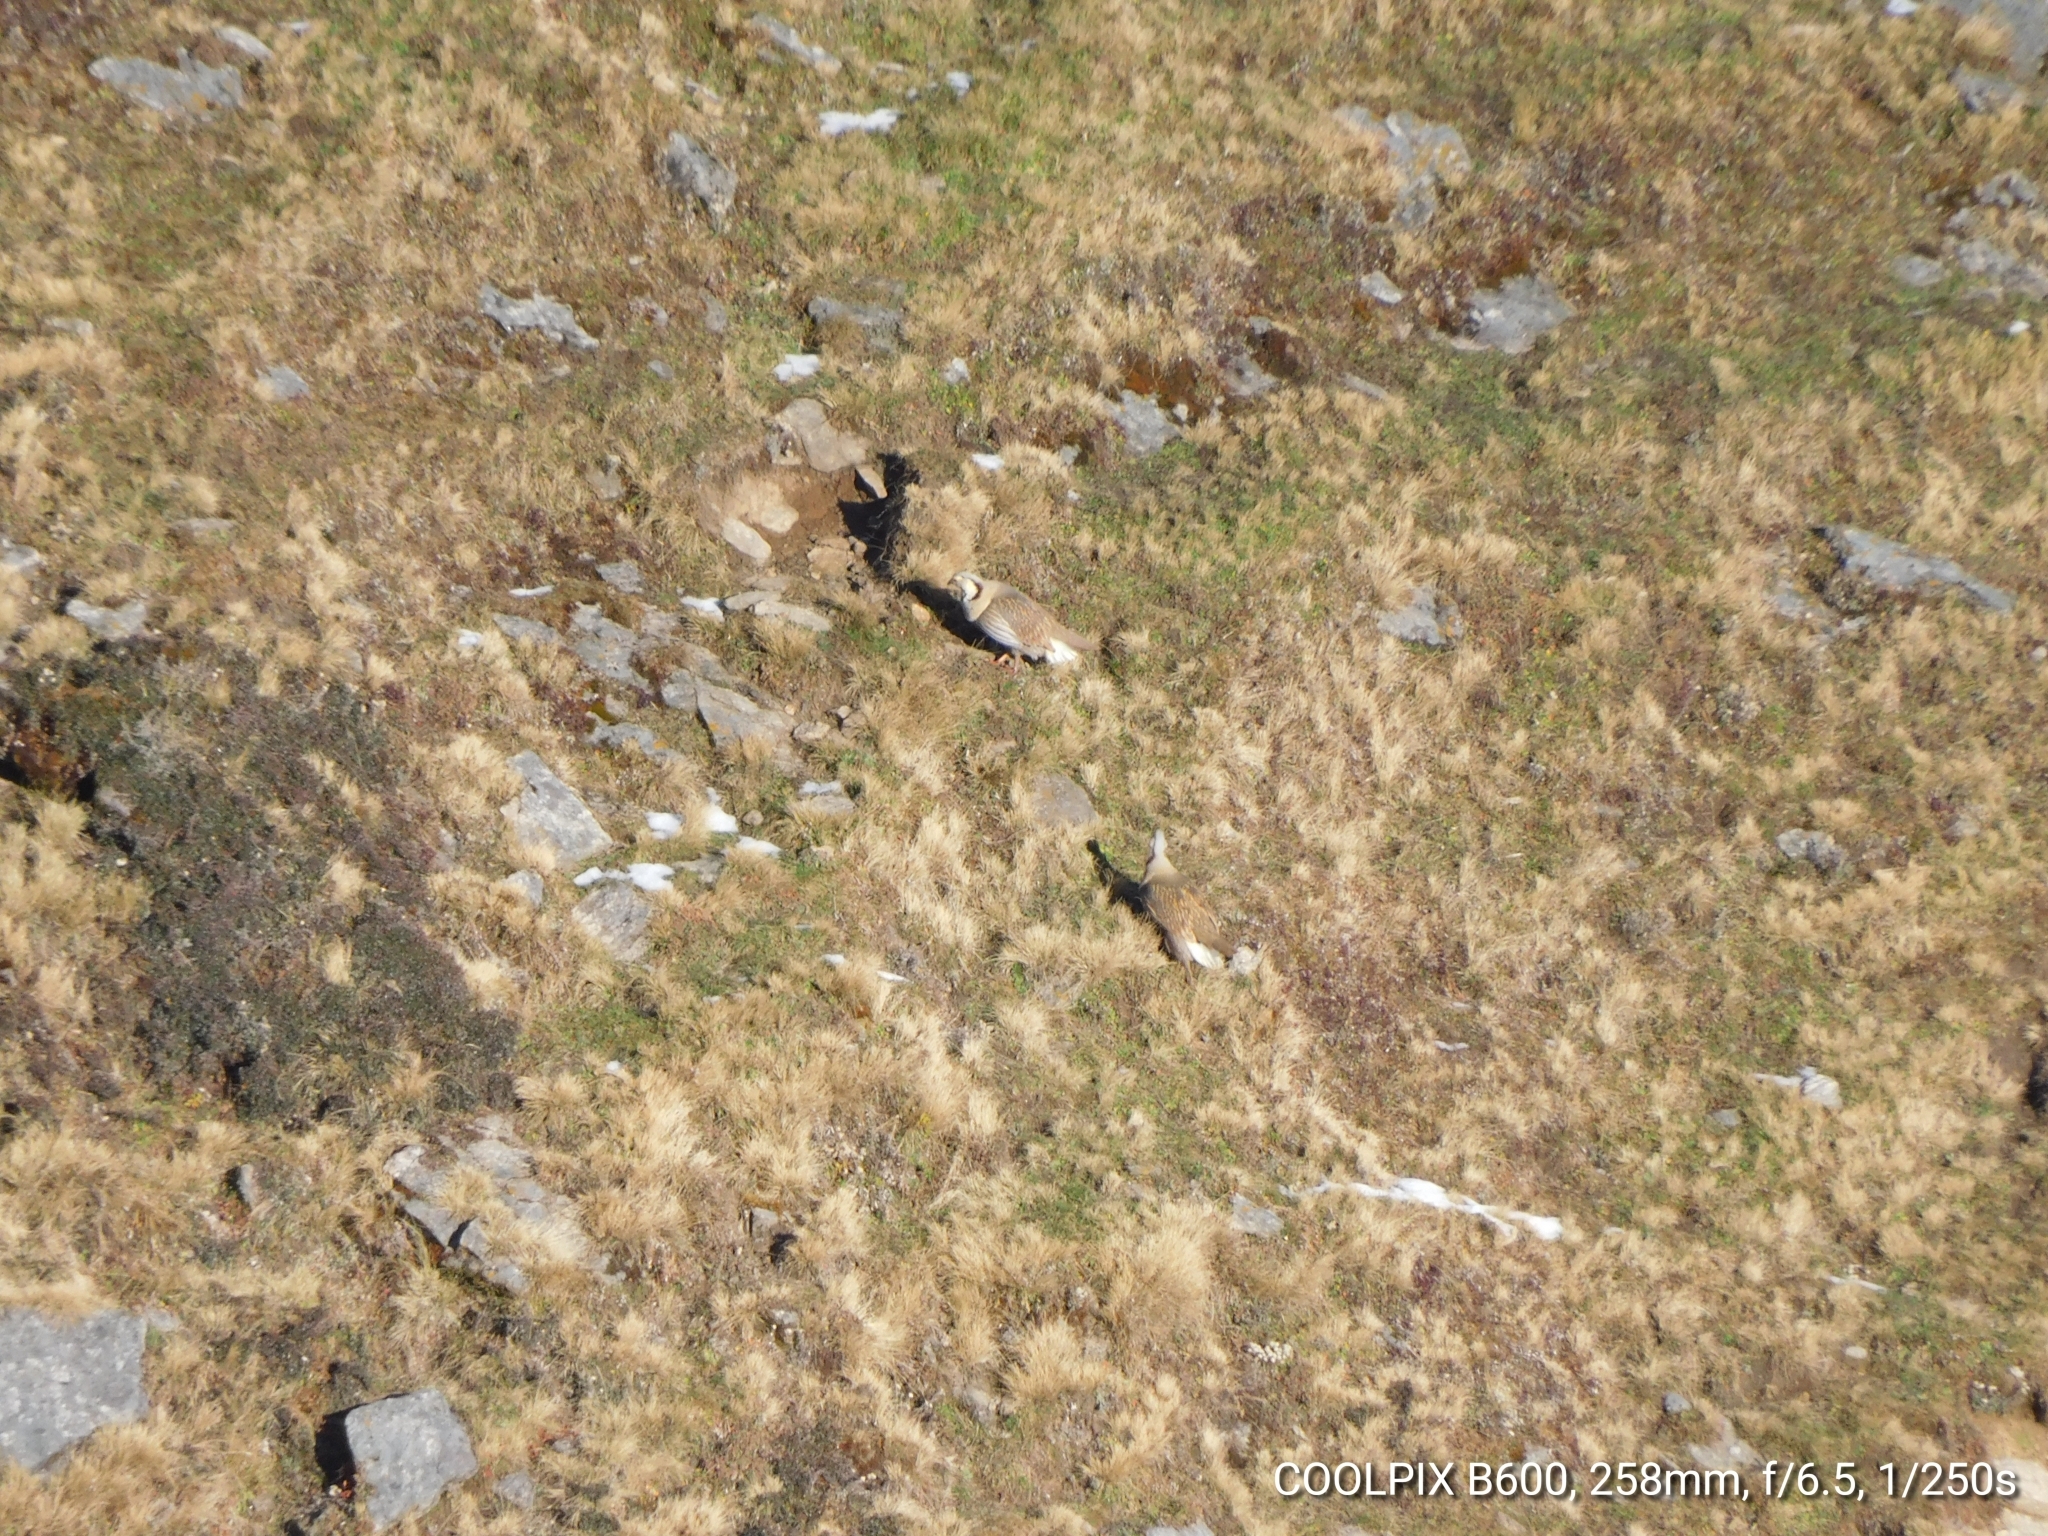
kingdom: Animalia
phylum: Chordata
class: Aves
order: Galliformes
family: Phasianidae
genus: Tetraogallus
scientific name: Tetraogallus himalayensis
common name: Himalayan snowcock
